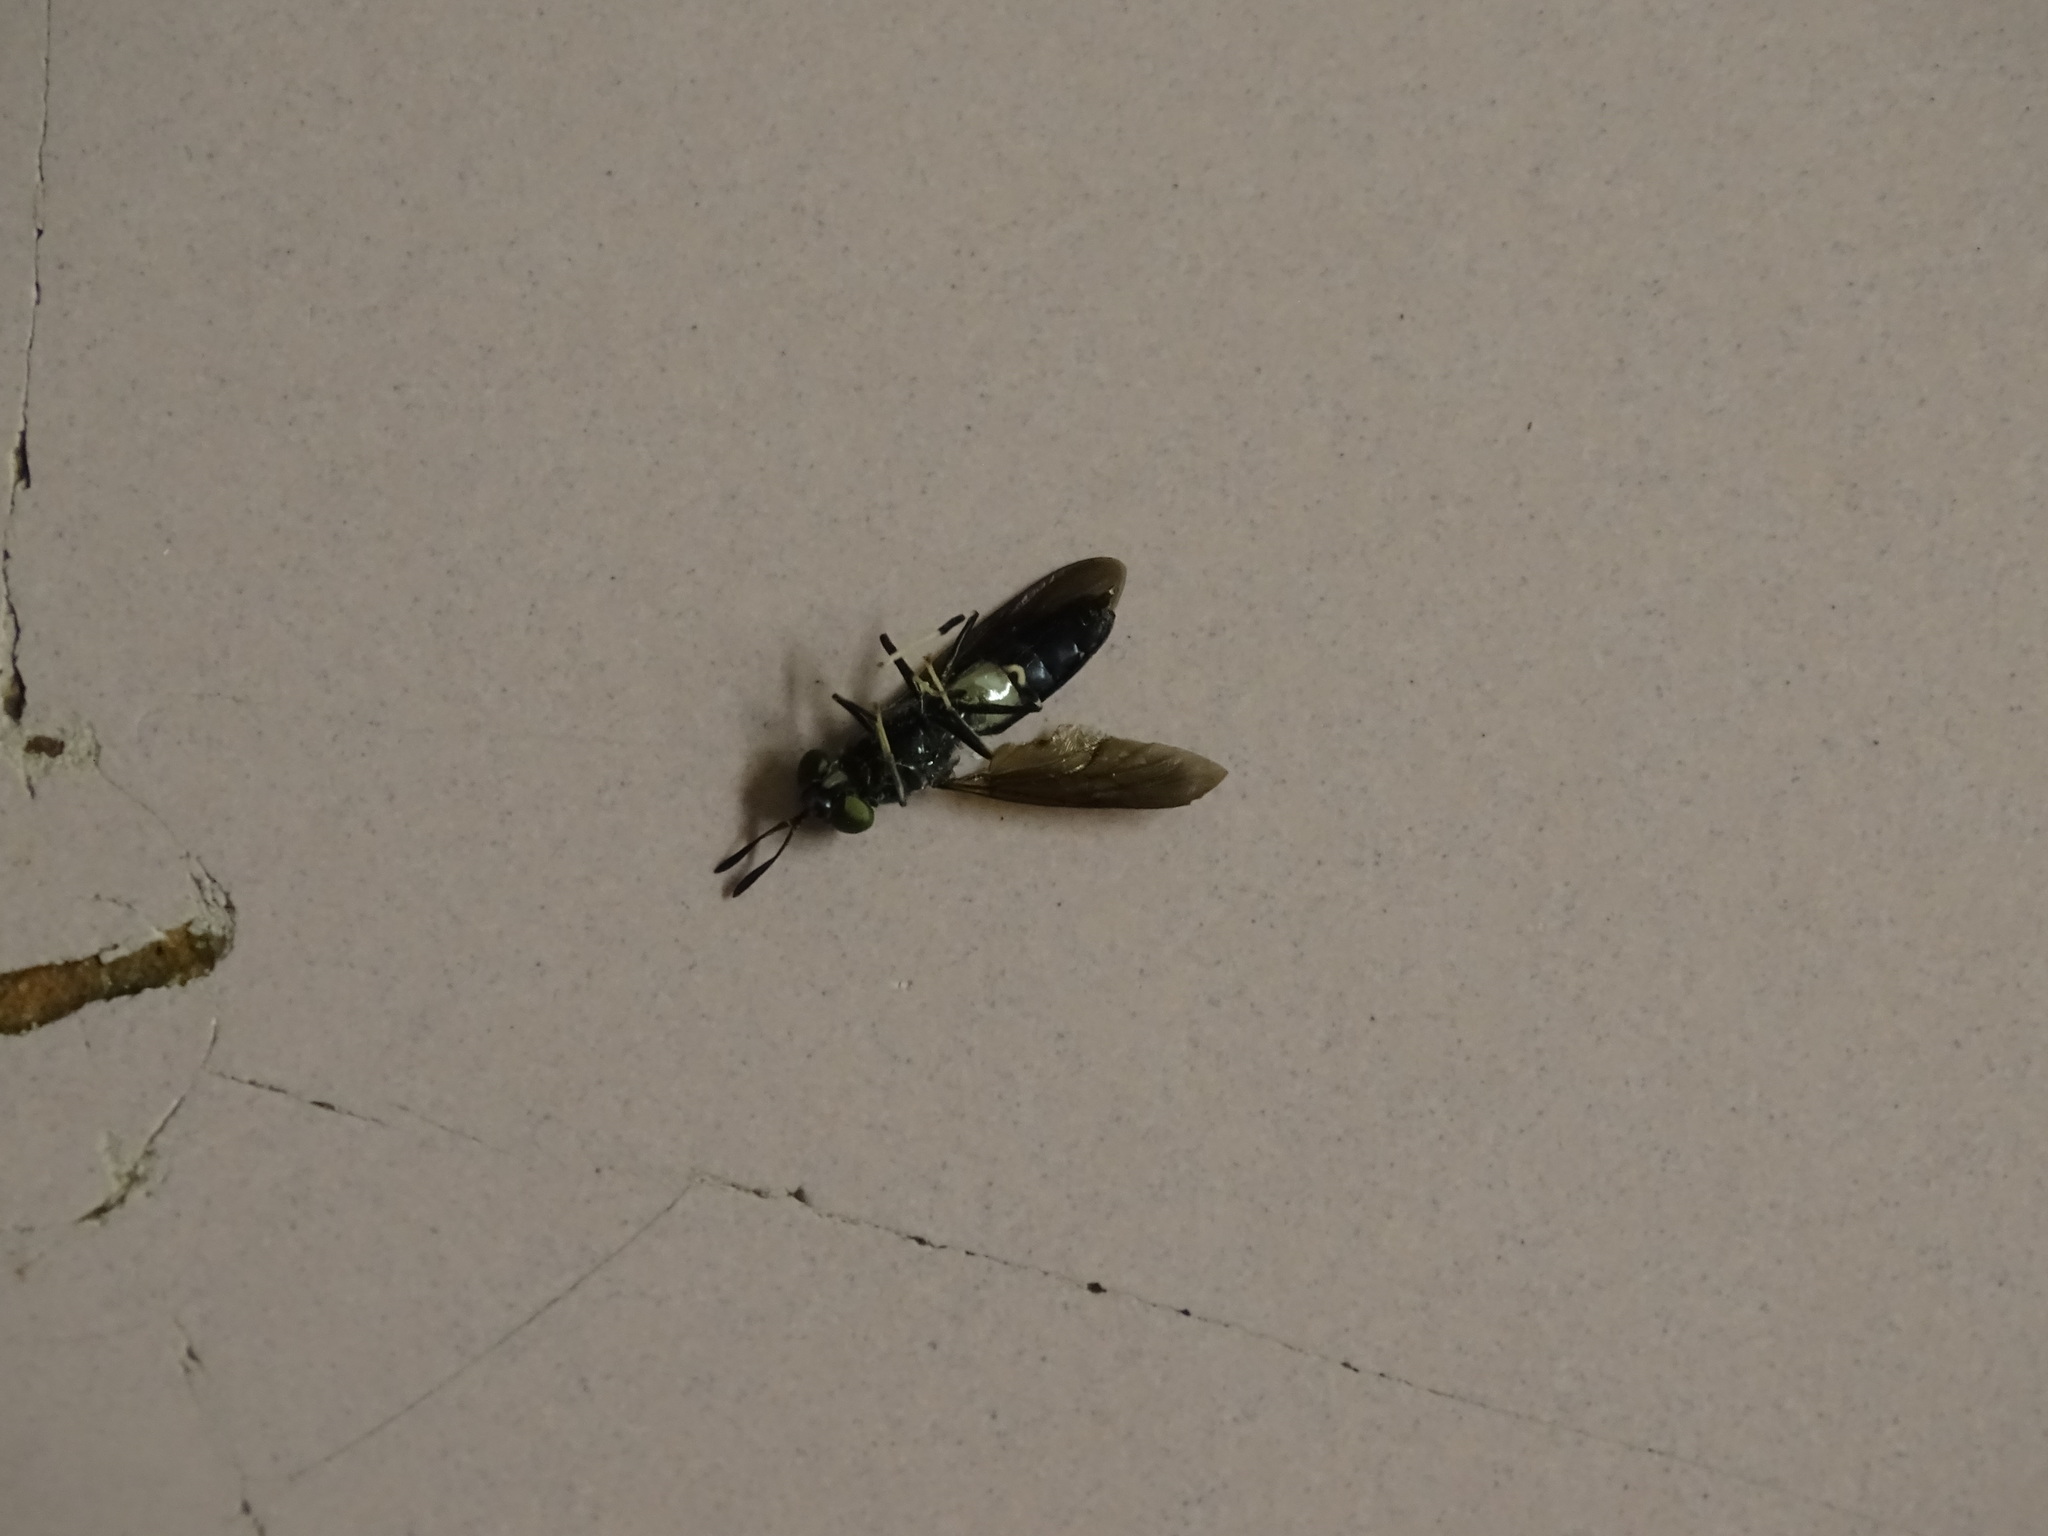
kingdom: Animalia
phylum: Arthropoda
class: Insecta
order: Diptera
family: Stratiomyidae
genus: Hermetia
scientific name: Hermetia illucens
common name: Black soldier fly
